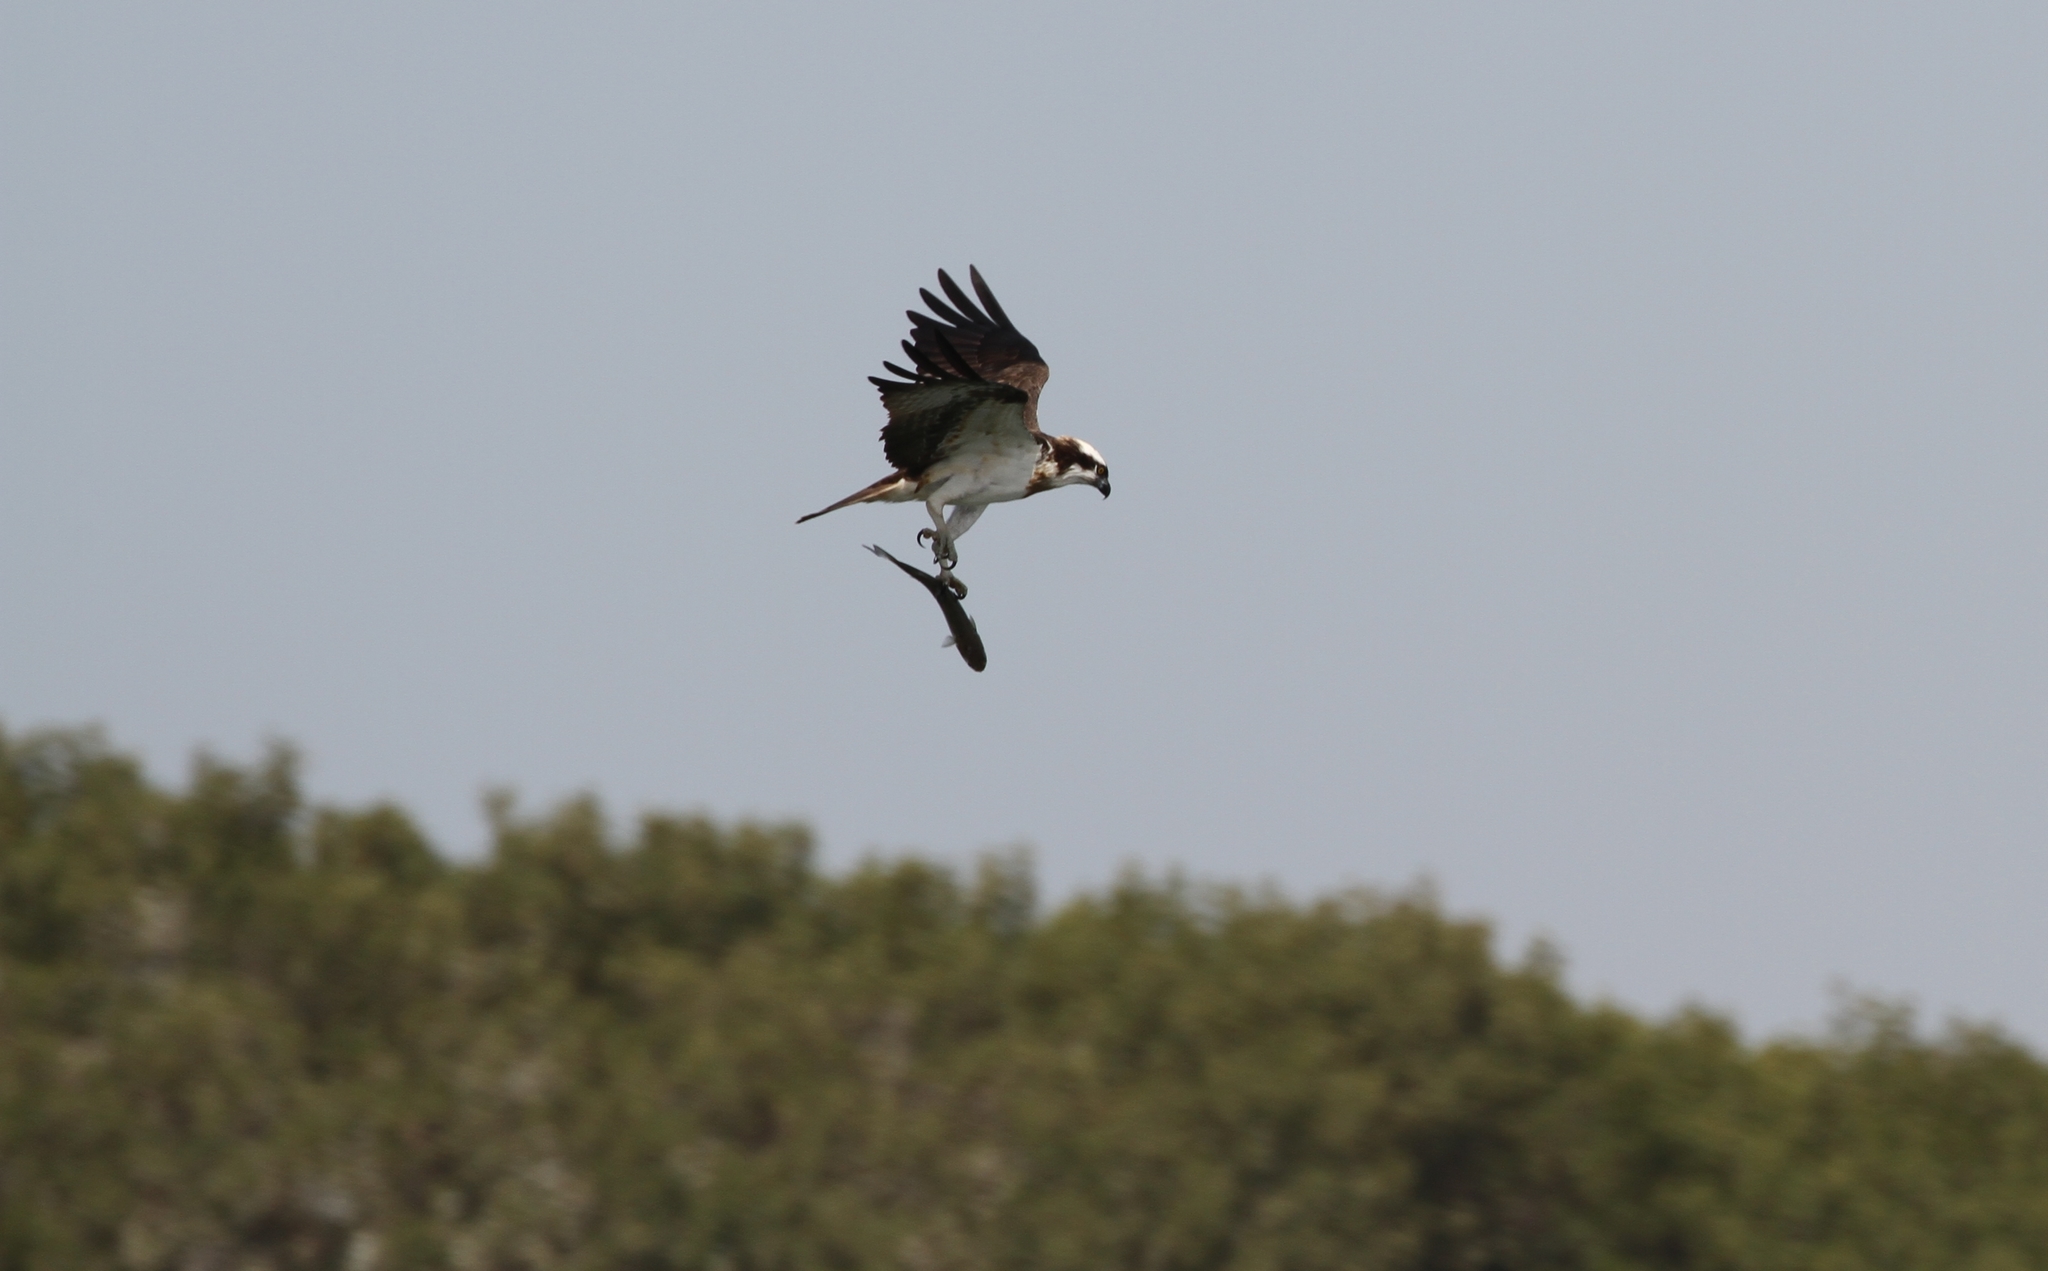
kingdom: Animalia
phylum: Chordata
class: Aves
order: Accipitriformes
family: Pandionidae
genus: Pandion
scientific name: Pandion haliaetus
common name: Osprey
